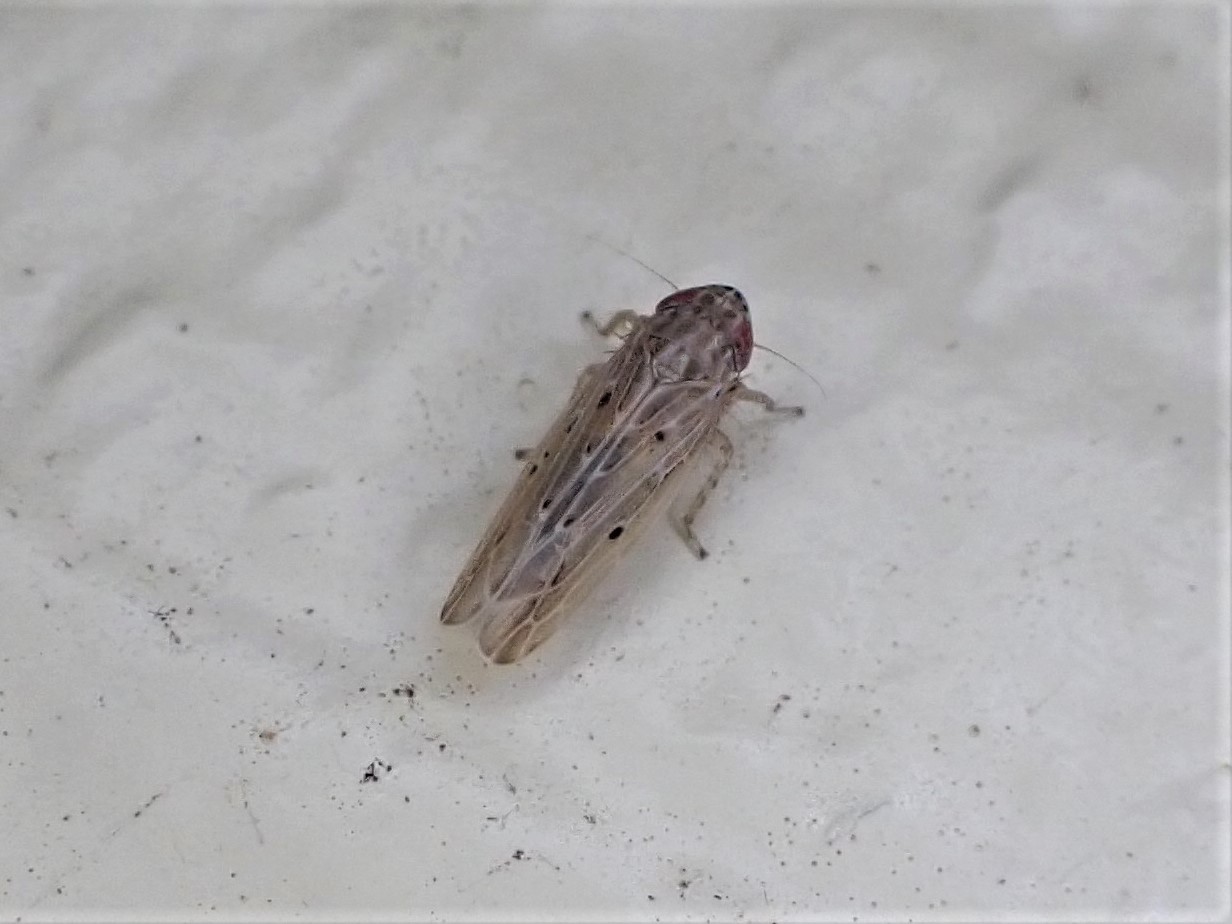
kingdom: Animalia
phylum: Arthropoda
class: Insecta
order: Hemiptera
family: Cicadellidae
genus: Maiestas
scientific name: Maiestas vetus
